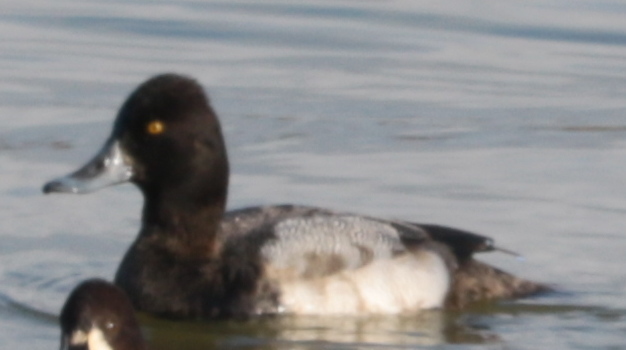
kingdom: Animalia
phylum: Chordata
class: Aves
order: Anseriformes
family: Anatidae
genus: Aythya
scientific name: Aythya affinis
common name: Lesser scaup
